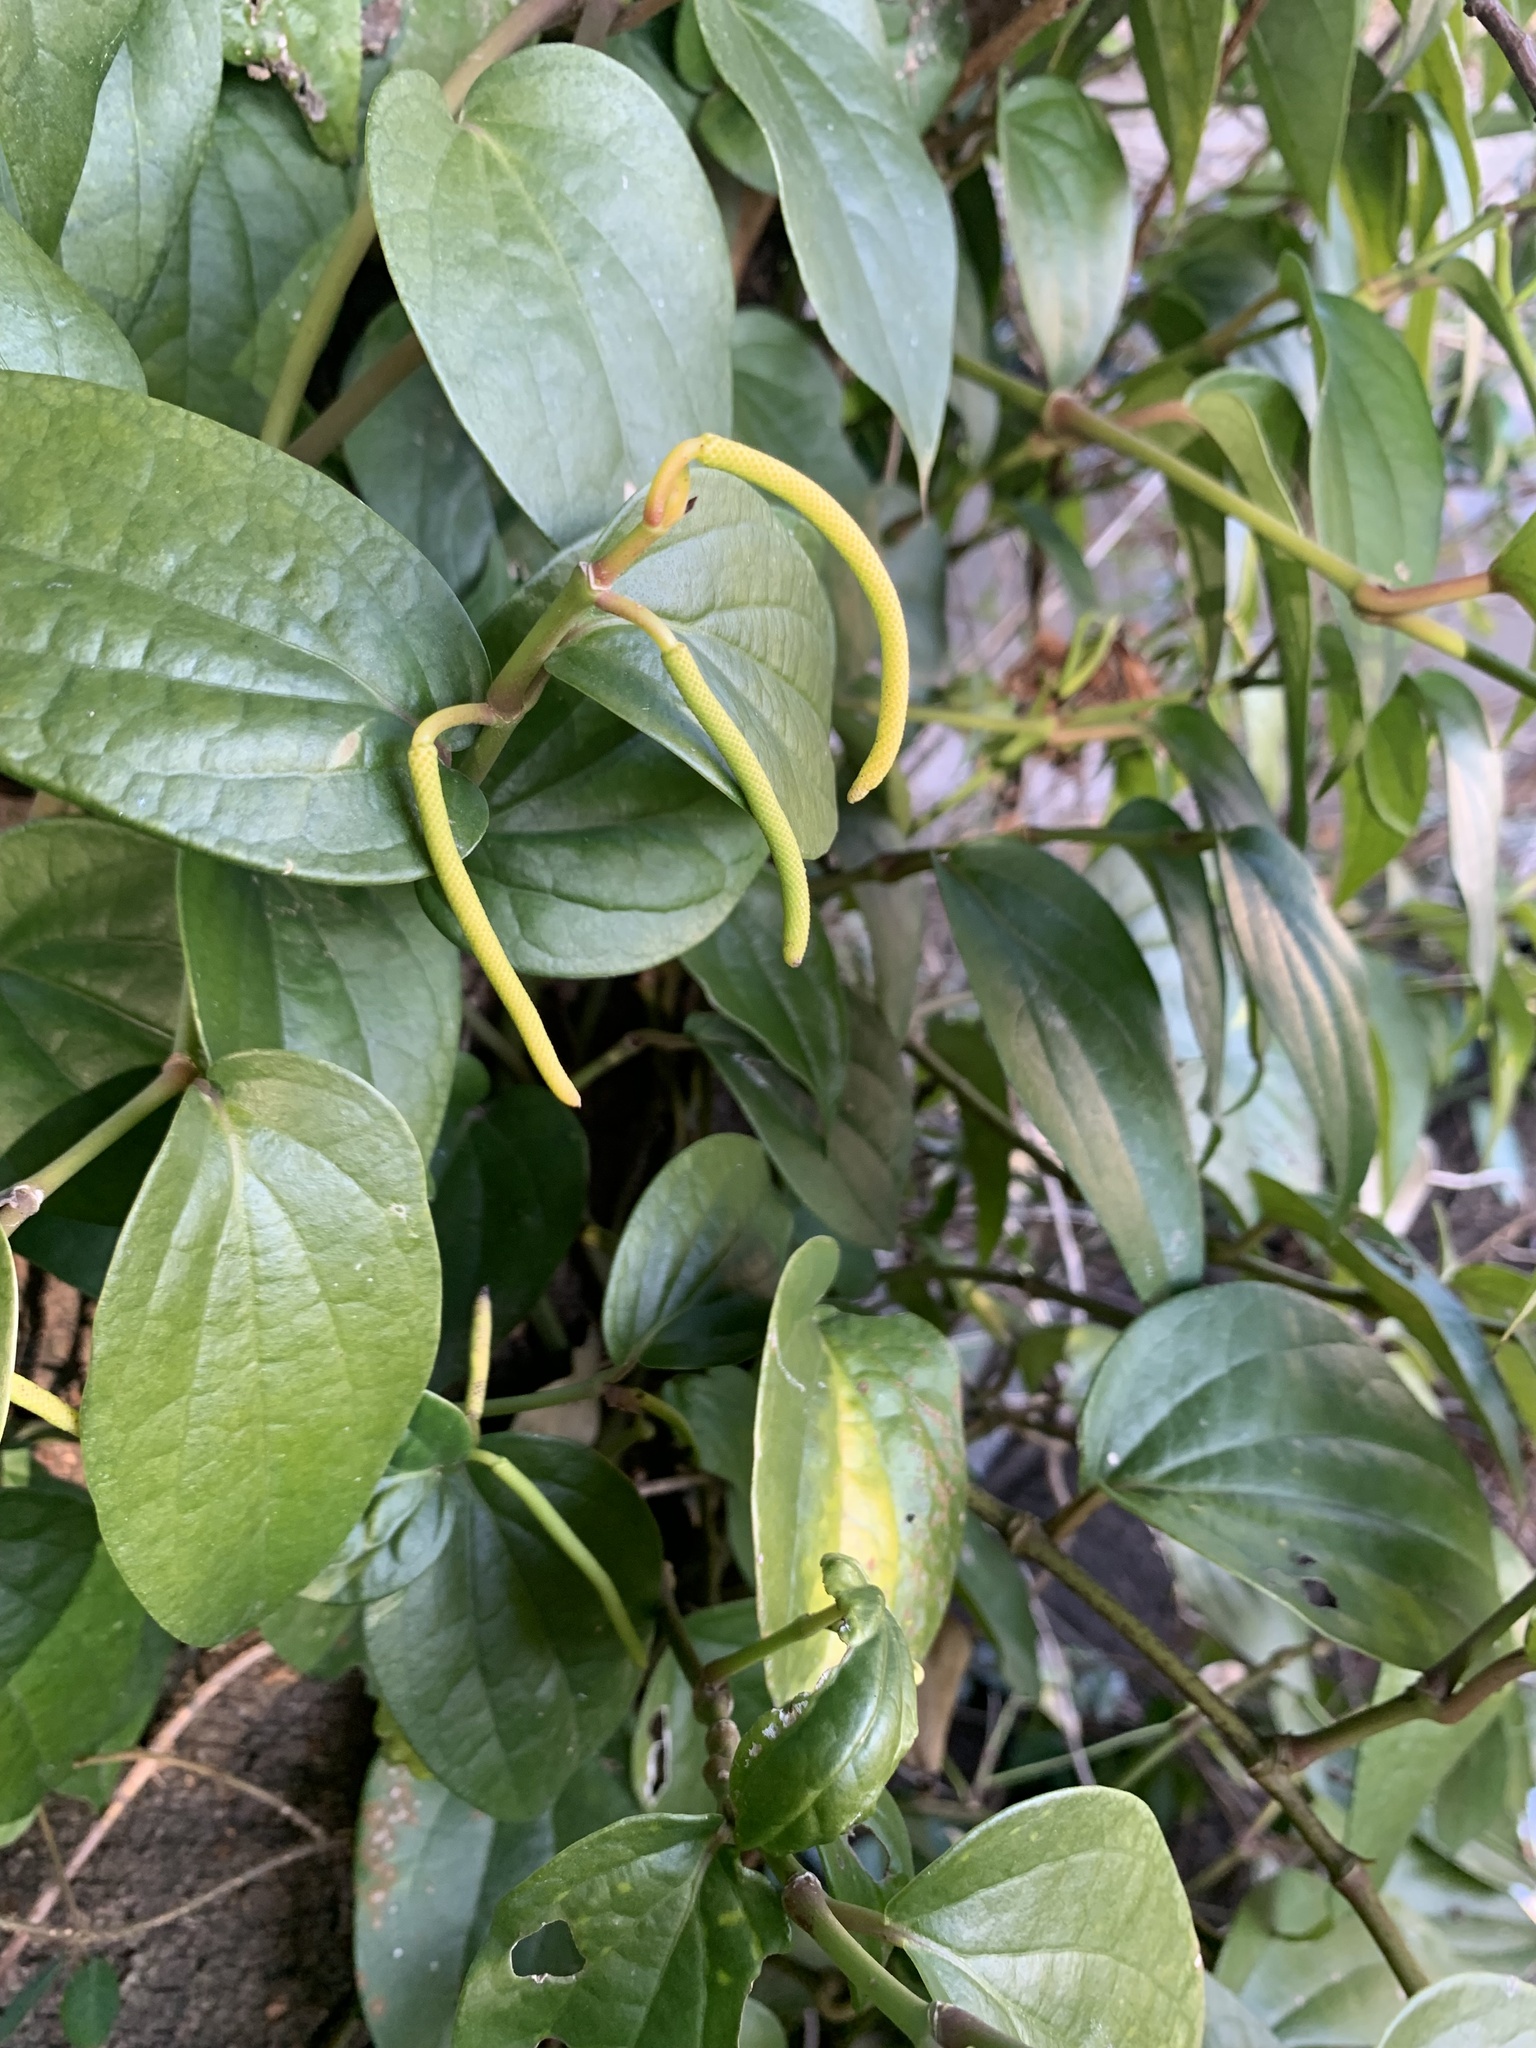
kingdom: Plantae
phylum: Tracheophyta
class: Magnoliopsida
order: Piperales
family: Piperaceae
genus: Piper
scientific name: Piper kadsura
